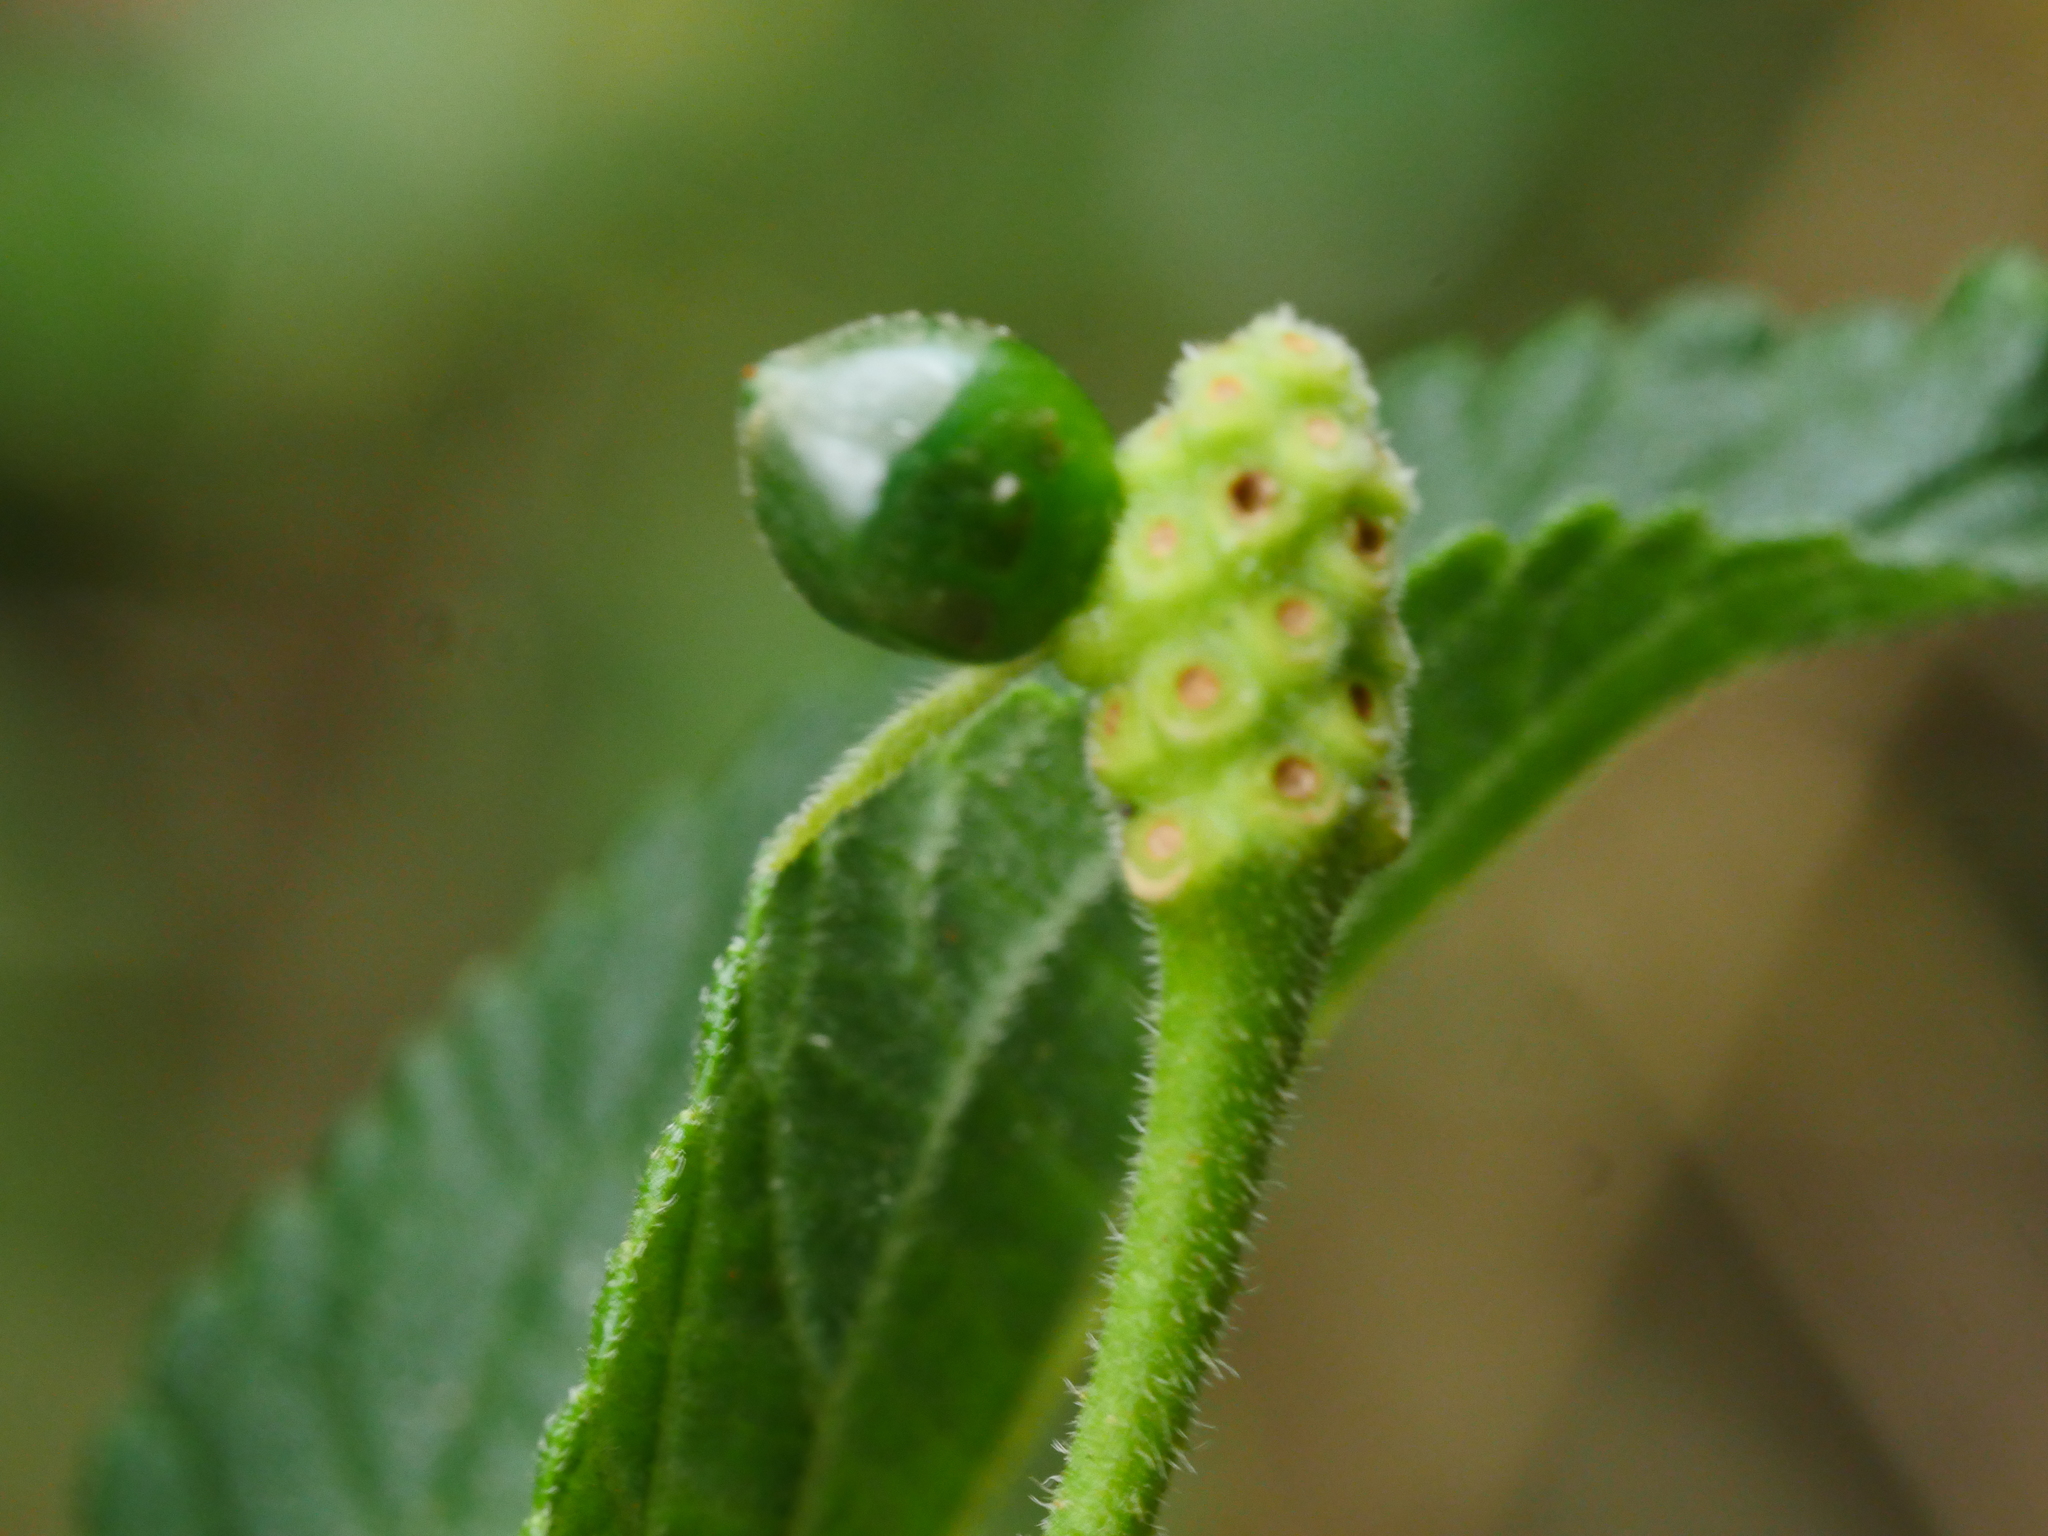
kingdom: Plantae
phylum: Tracheophyta
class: Magnoliopsida
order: Lamiales
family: Verbenaceae
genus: Lantana
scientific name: Lantana camara
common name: Lantana
